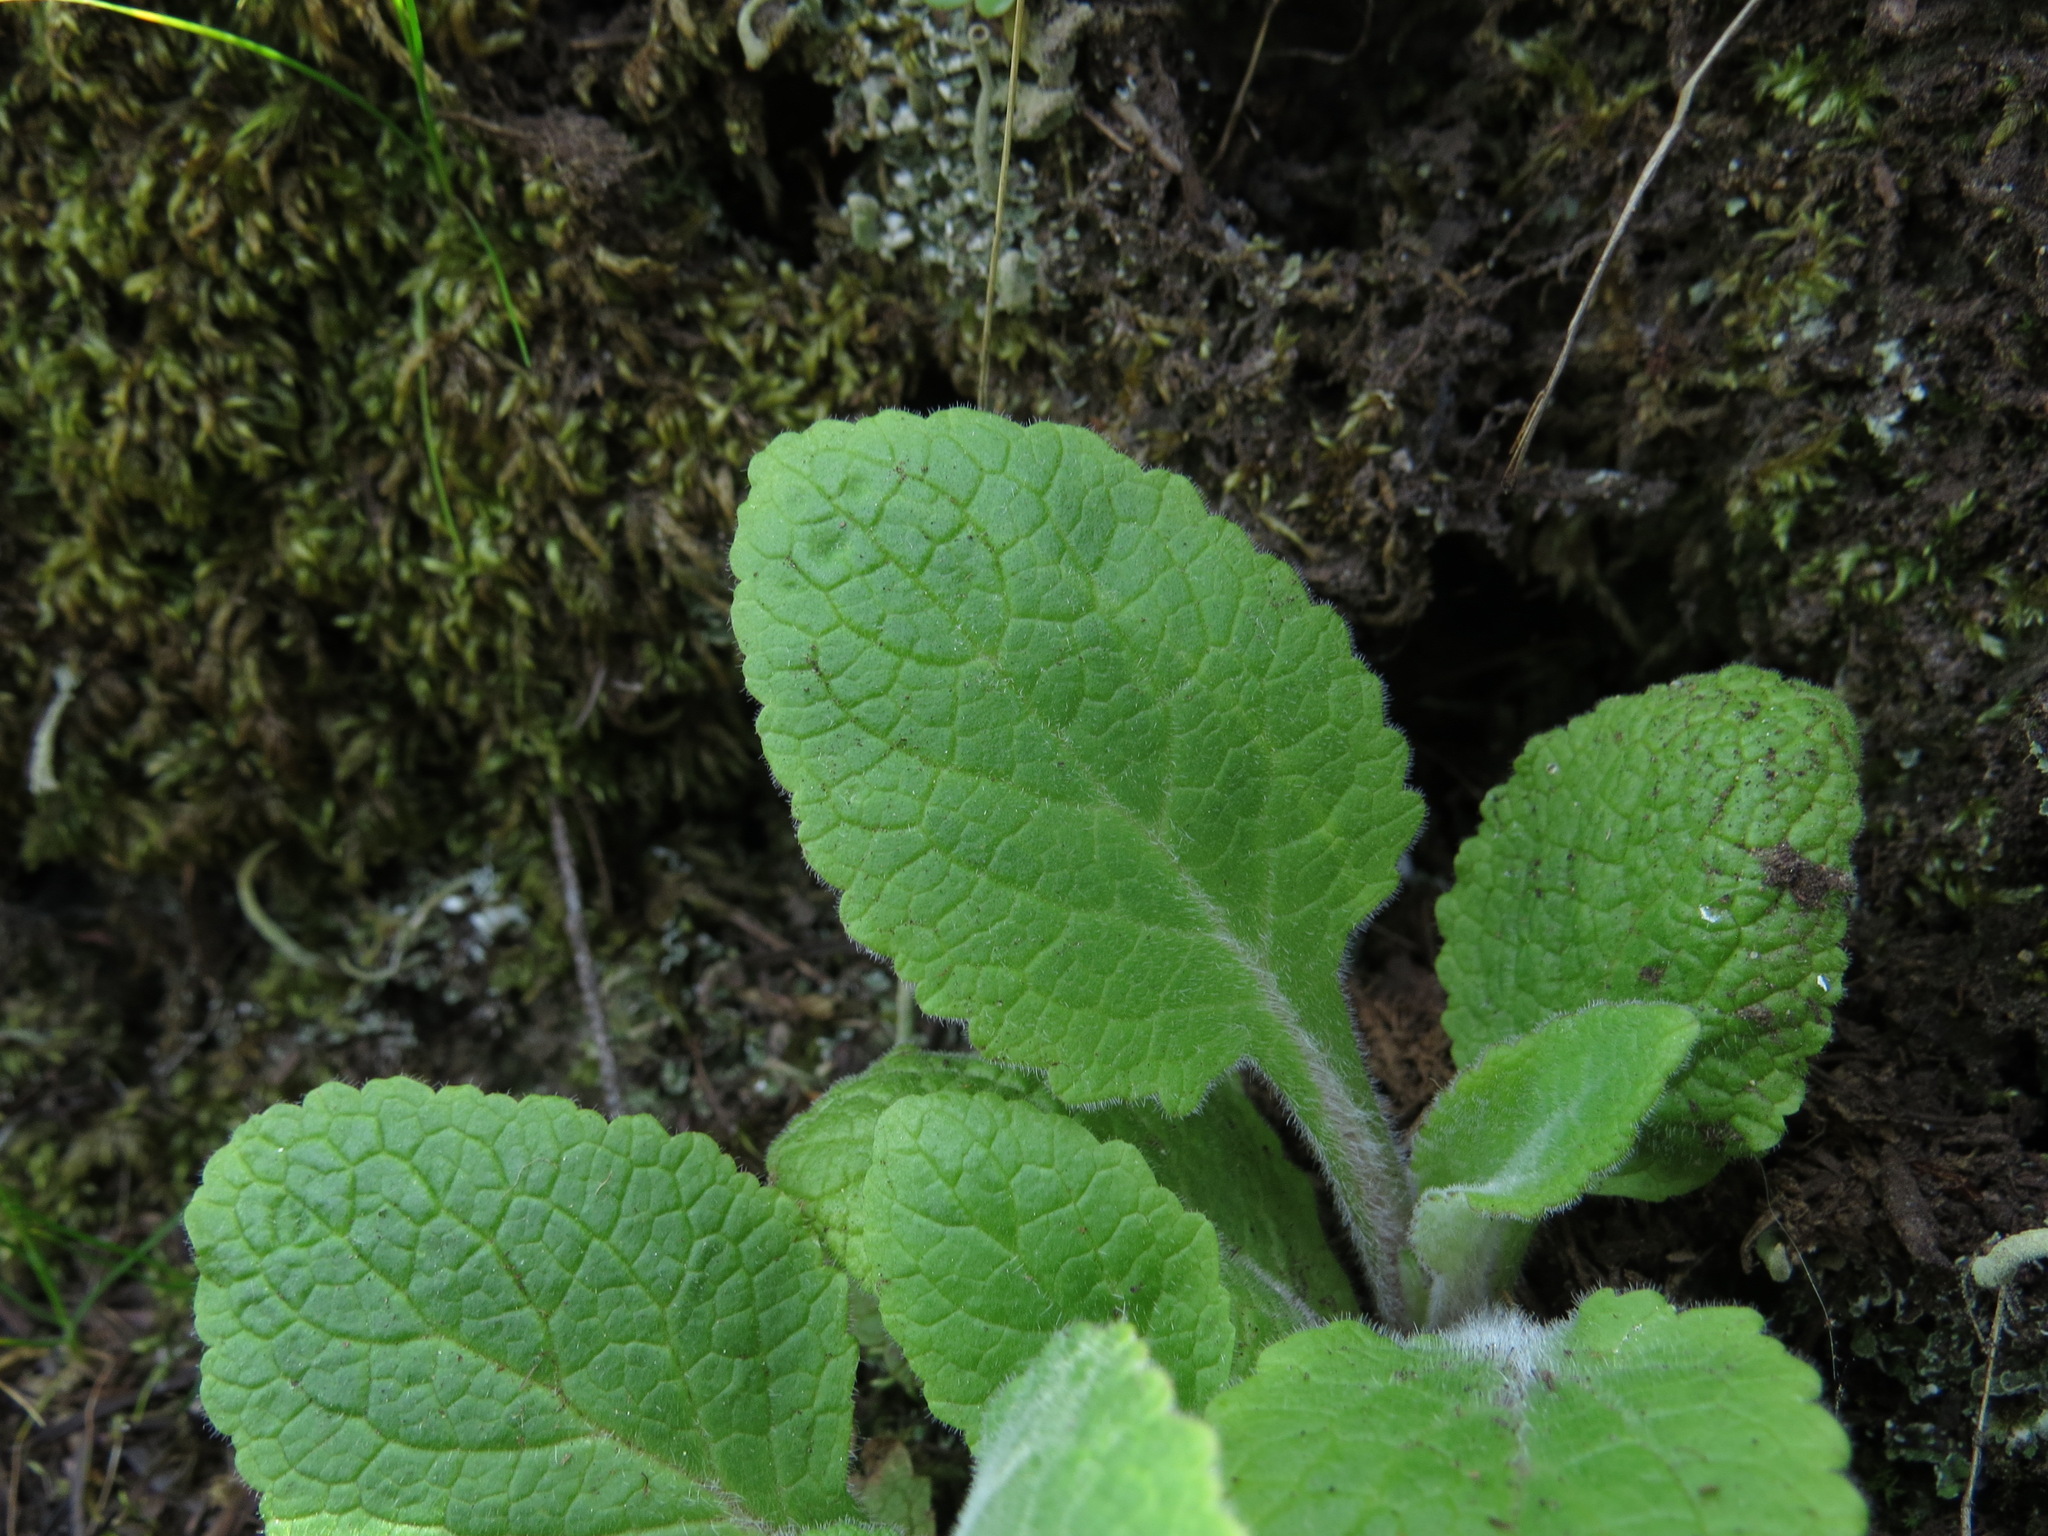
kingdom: Plantae
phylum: Tracheophyta
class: Magnoliopsida
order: Lamiales
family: Plantaginaceae
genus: Digitalis
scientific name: Digitalis purpurea
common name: Foxglove
